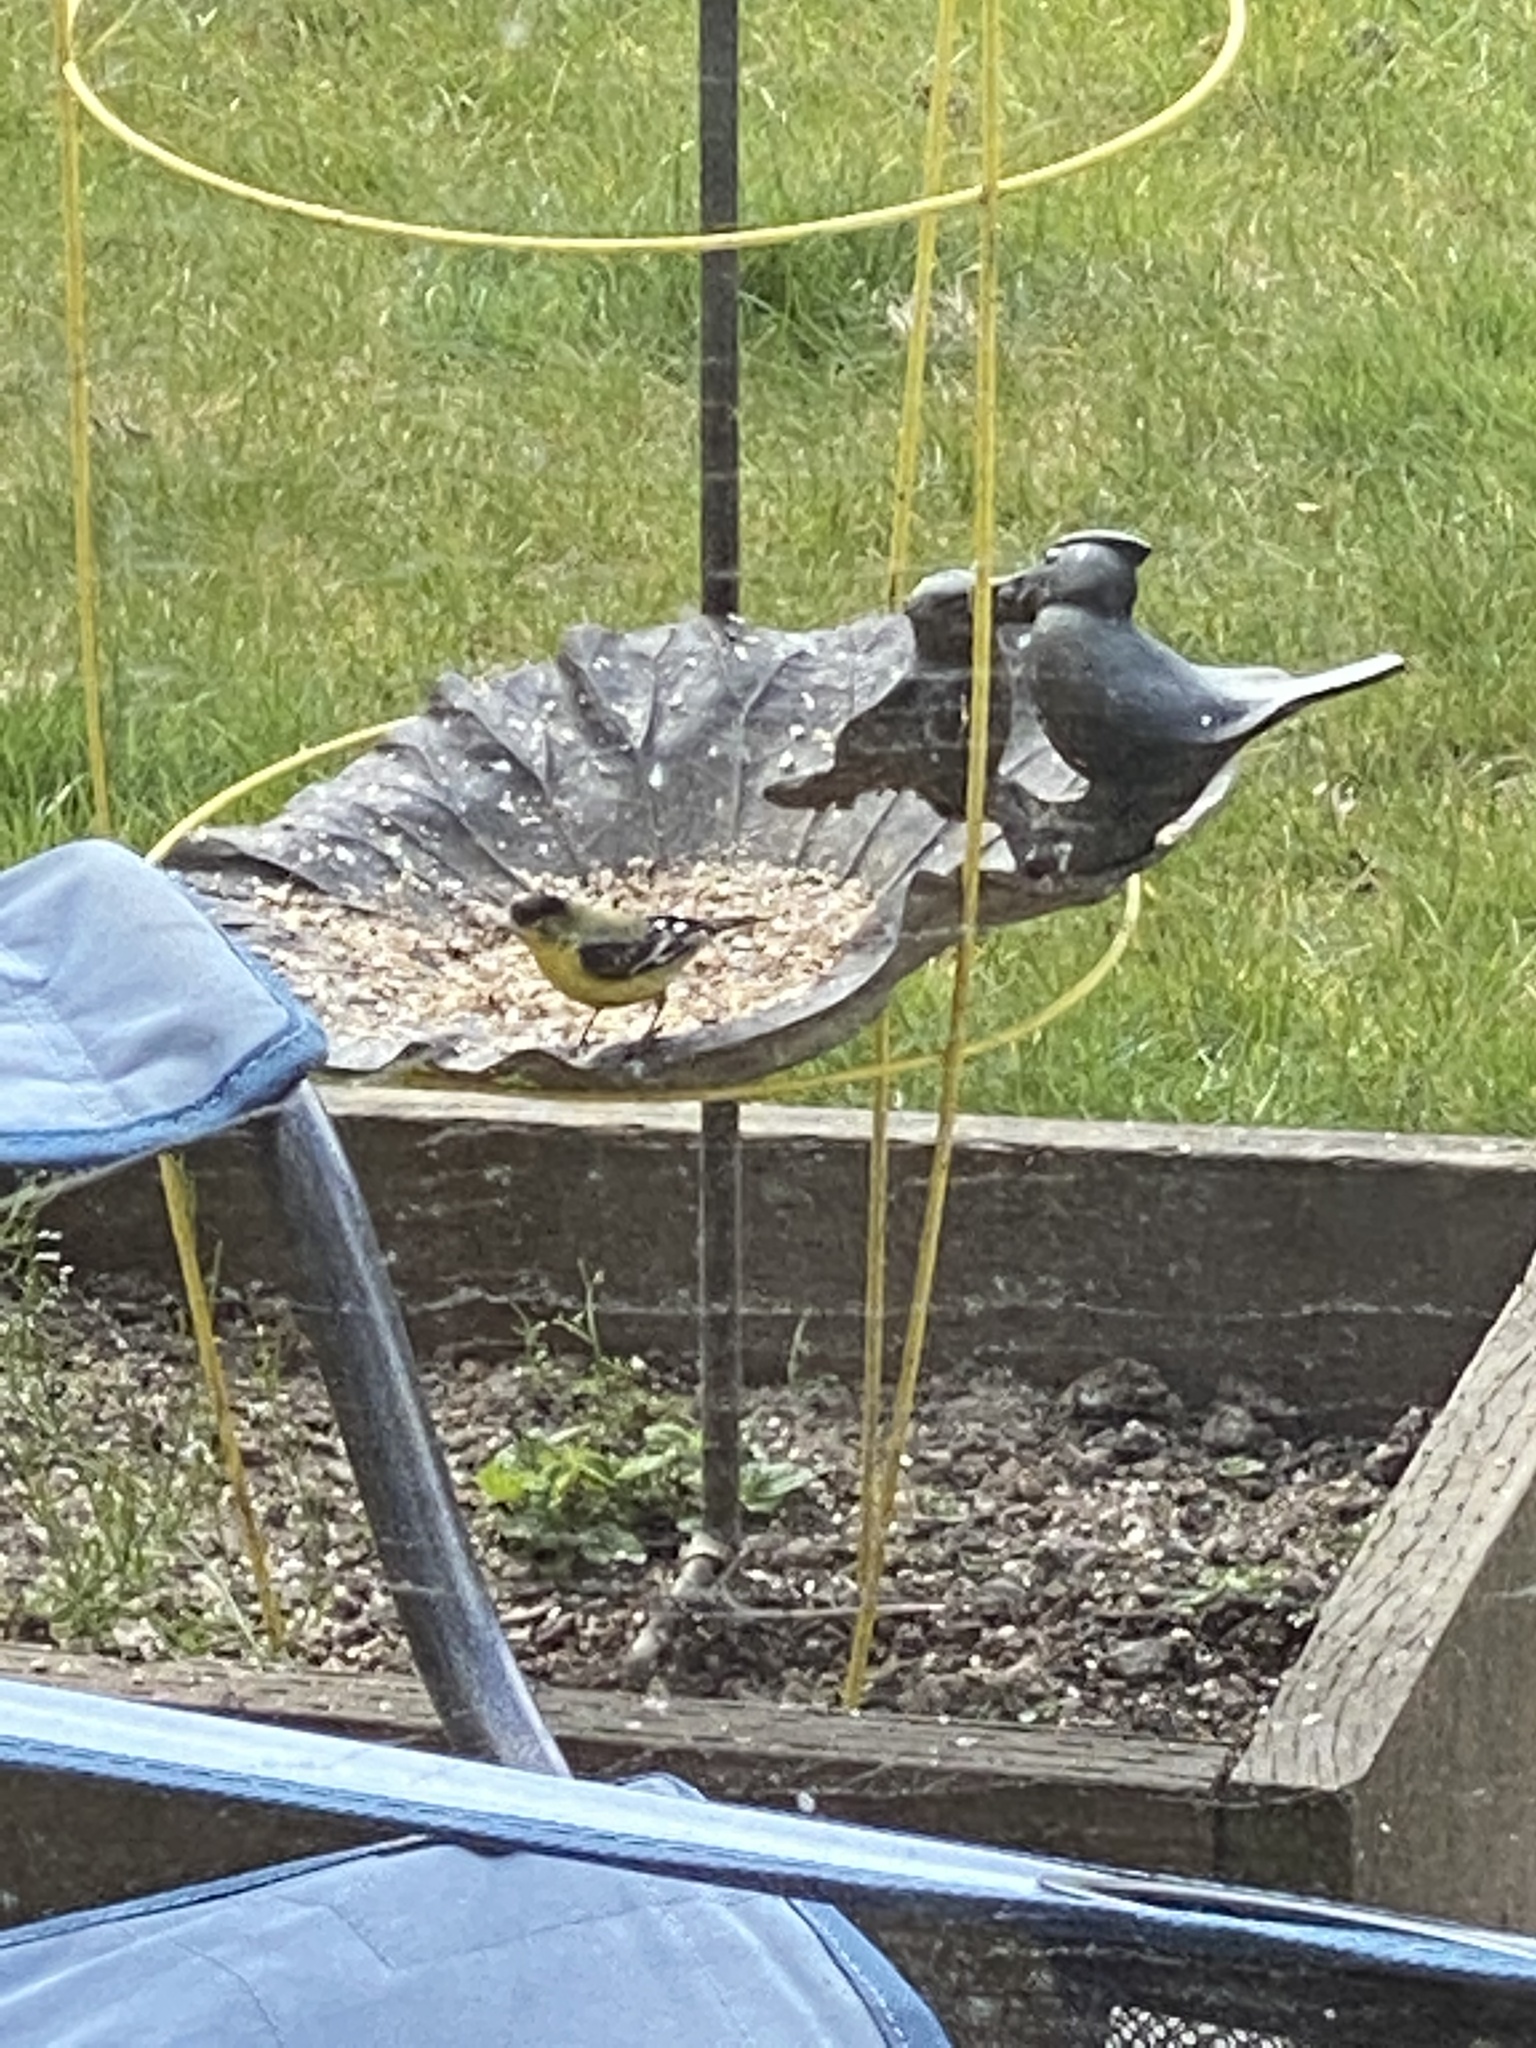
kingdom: Animalia
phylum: Chordata
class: Aves
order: Passeriformes
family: Fringillidae
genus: Spinus
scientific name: Spinus psaltria
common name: Lesser goldfinch
